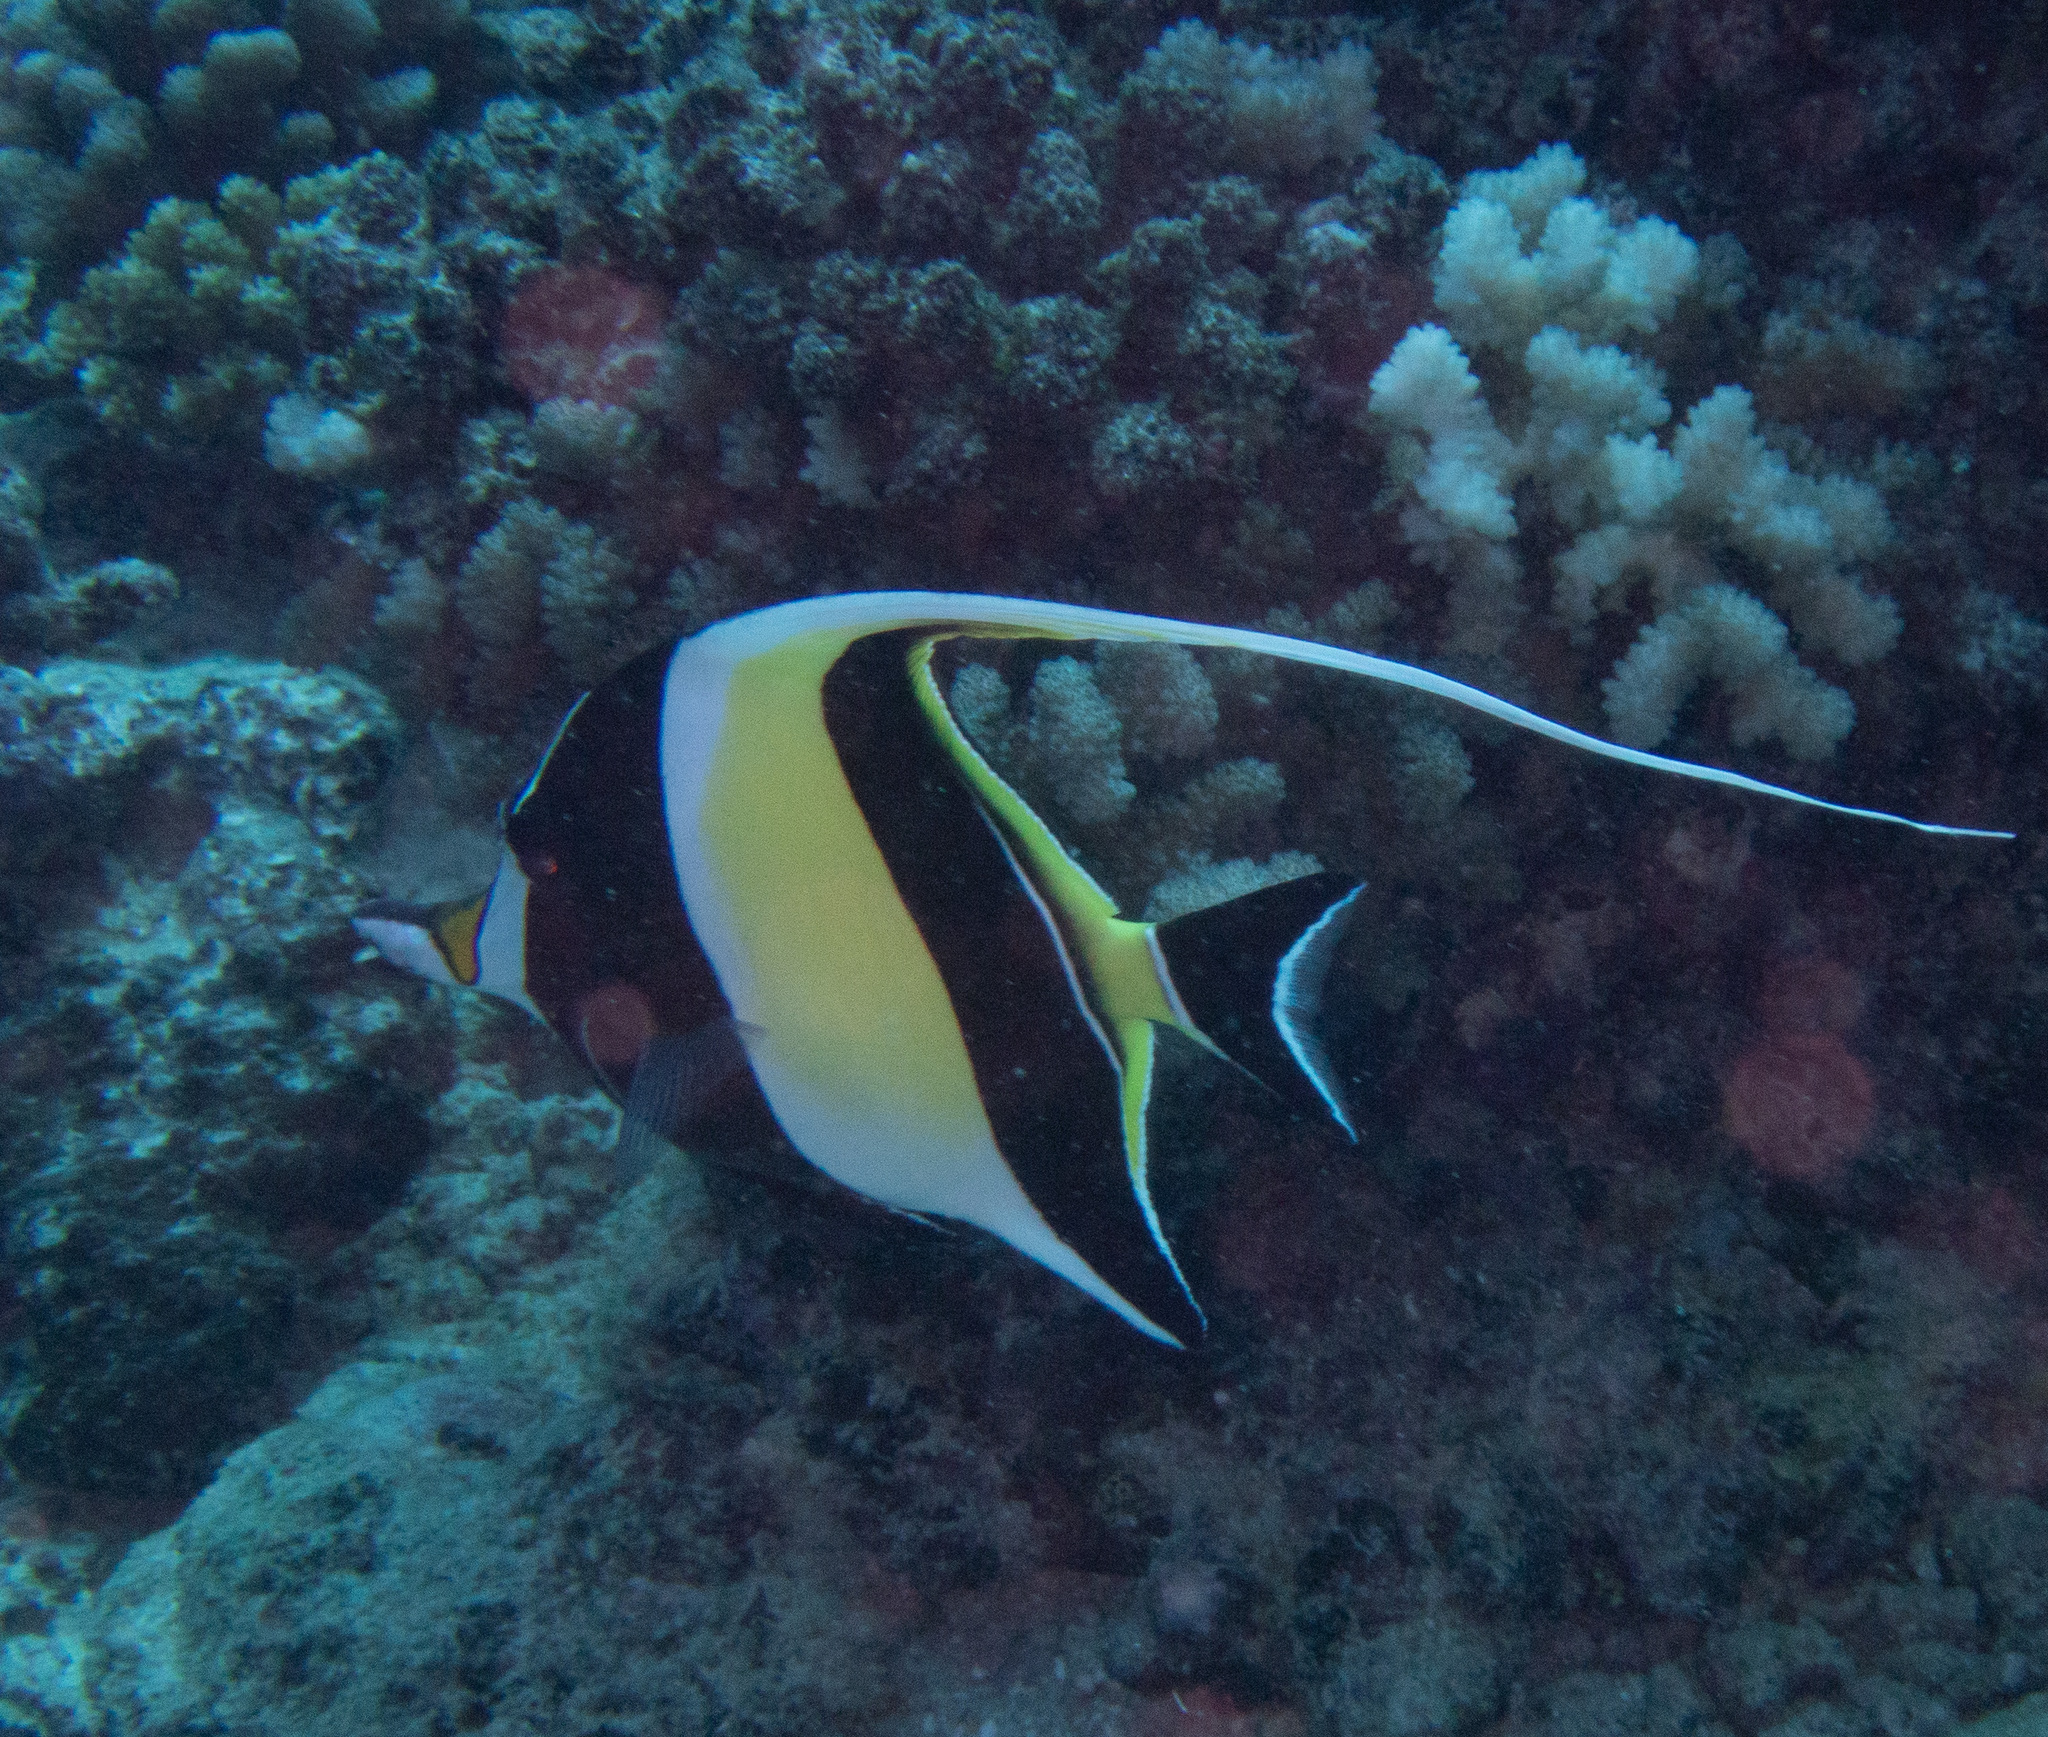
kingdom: Animalia
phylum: Chordata
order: Perciformes
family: Zanclidae
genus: Zanclus
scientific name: Zanclus cornutus
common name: Moorish idol
